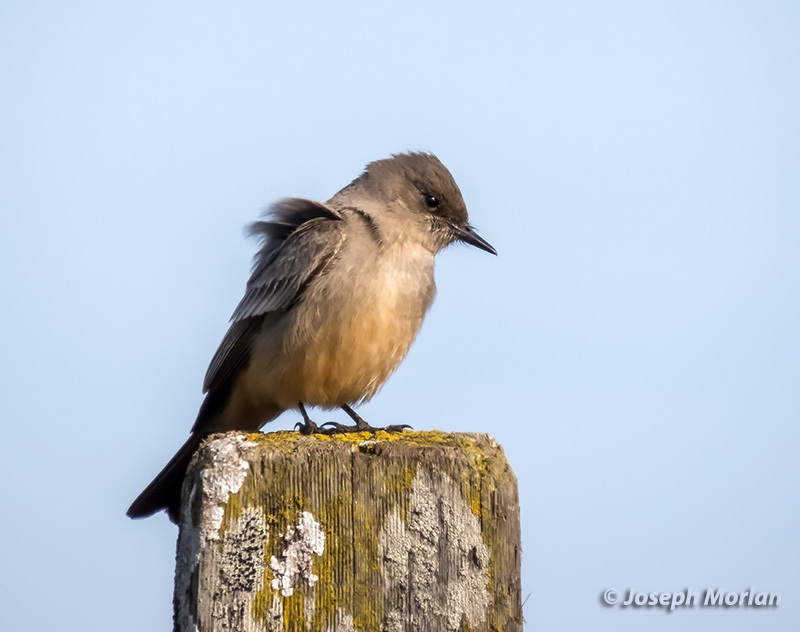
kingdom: Animalia
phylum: Chordata
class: Aves
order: Passeriformes
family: Tyrannidae
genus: Sayornis
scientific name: Sayornis saya
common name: Say's phoebe
